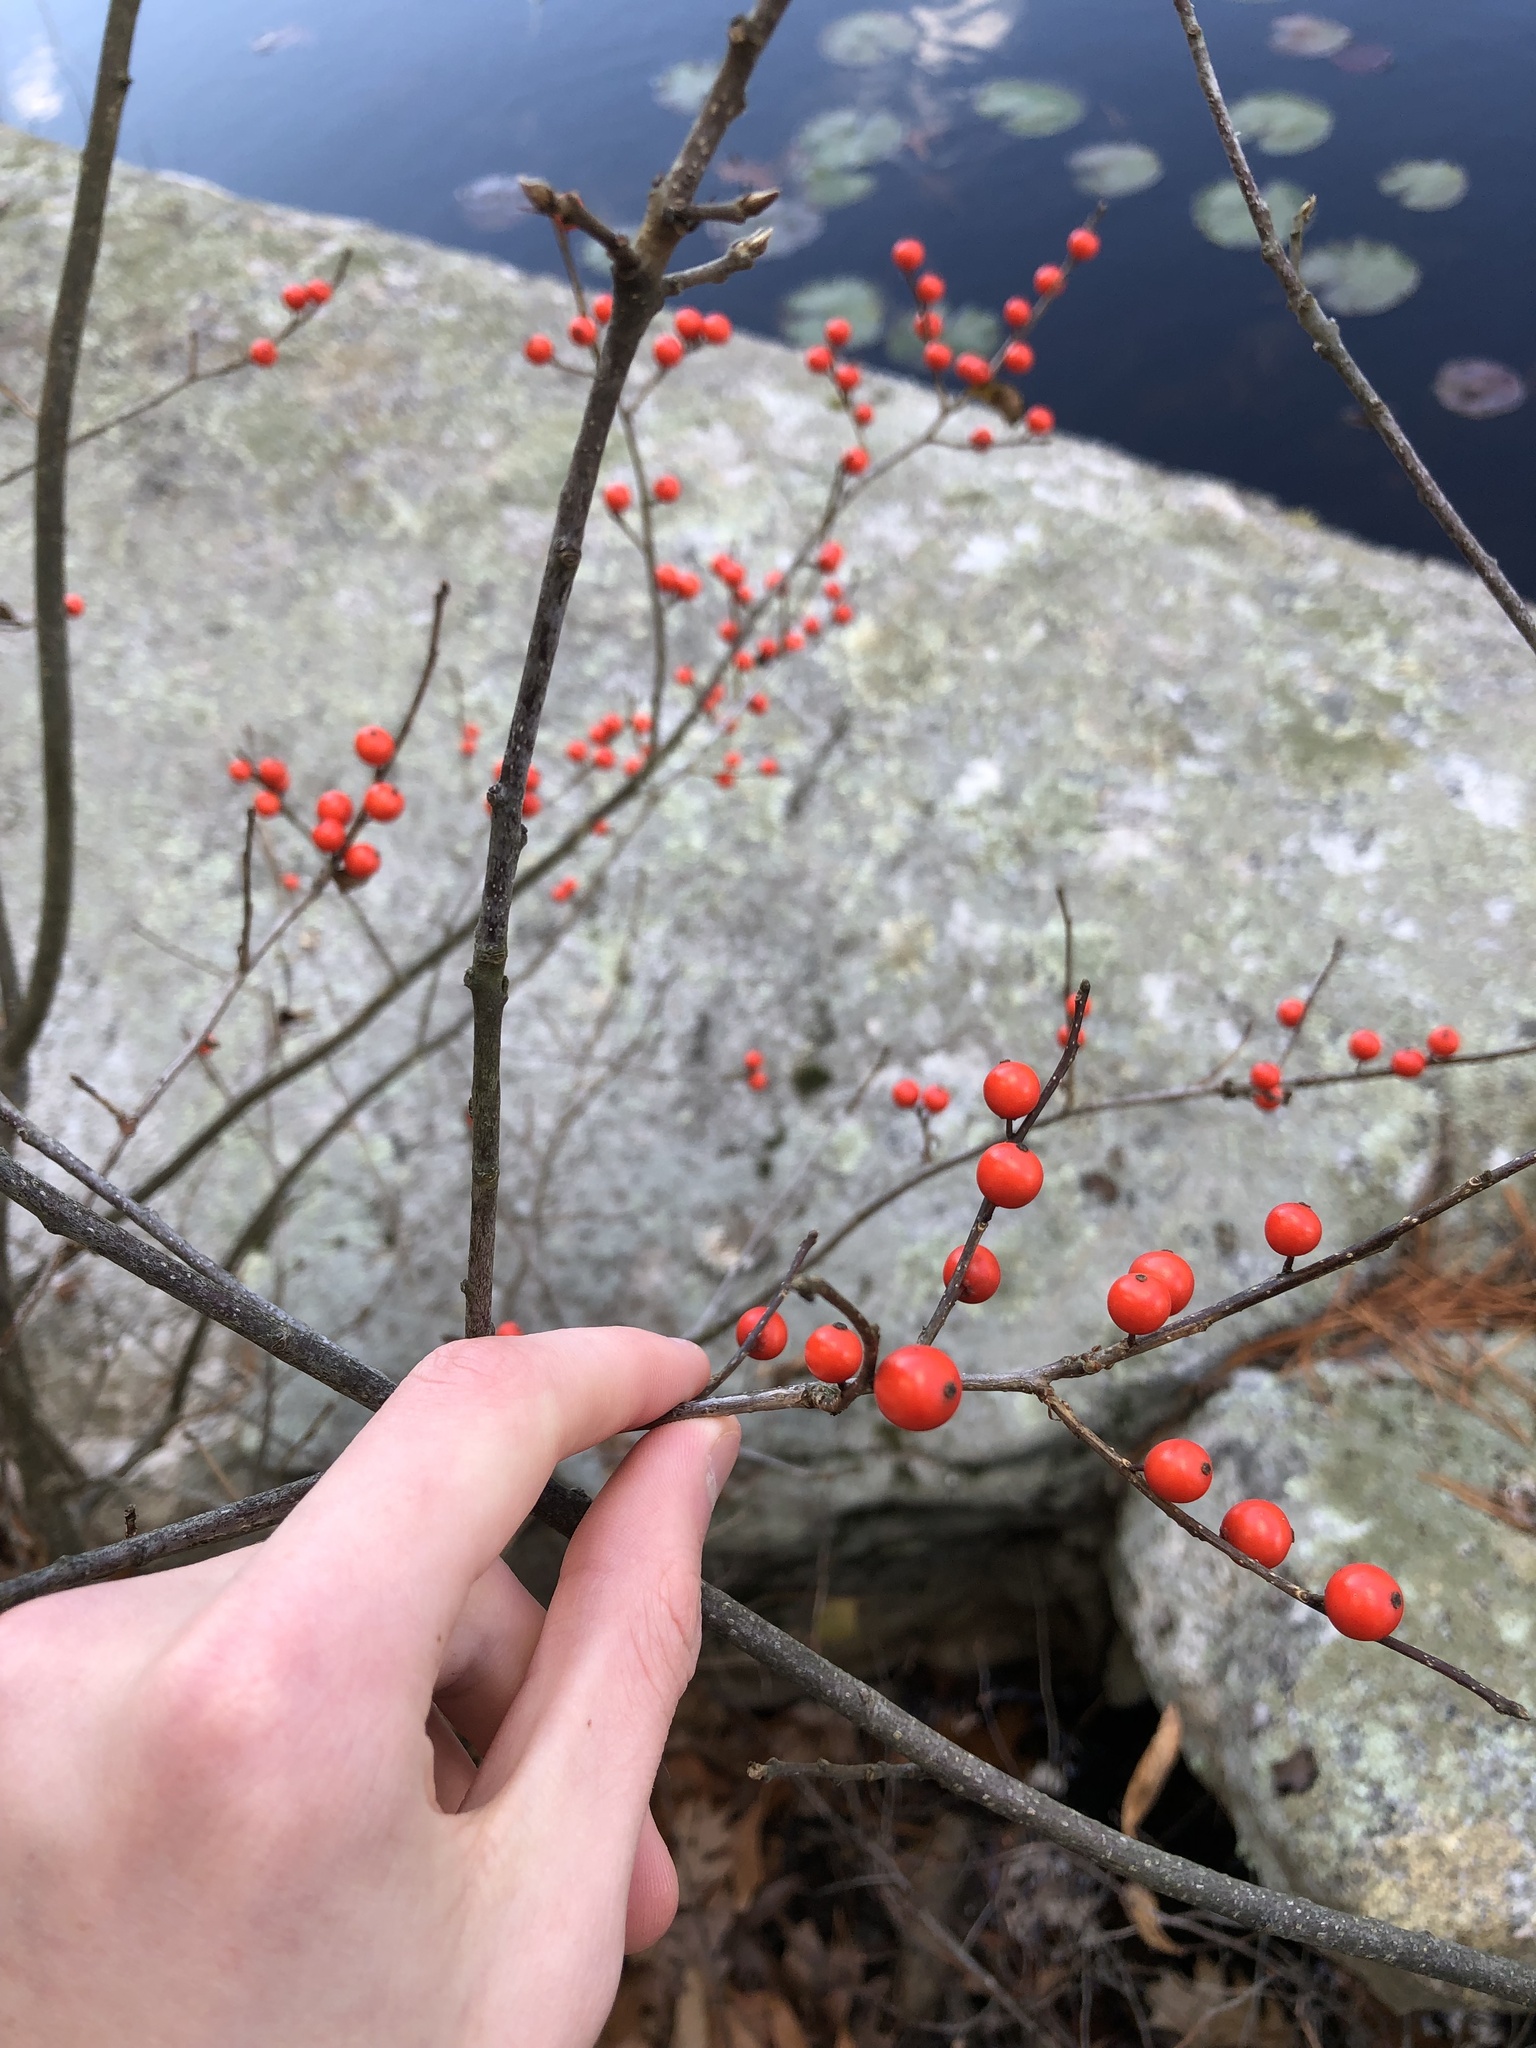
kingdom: Plantae
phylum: Tracheophyta
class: Magnoliopsida
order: Aquifoliales
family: Aquifoliaceae
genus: Ilex
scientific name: Ilex verticillata
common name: Virginia winterberry
